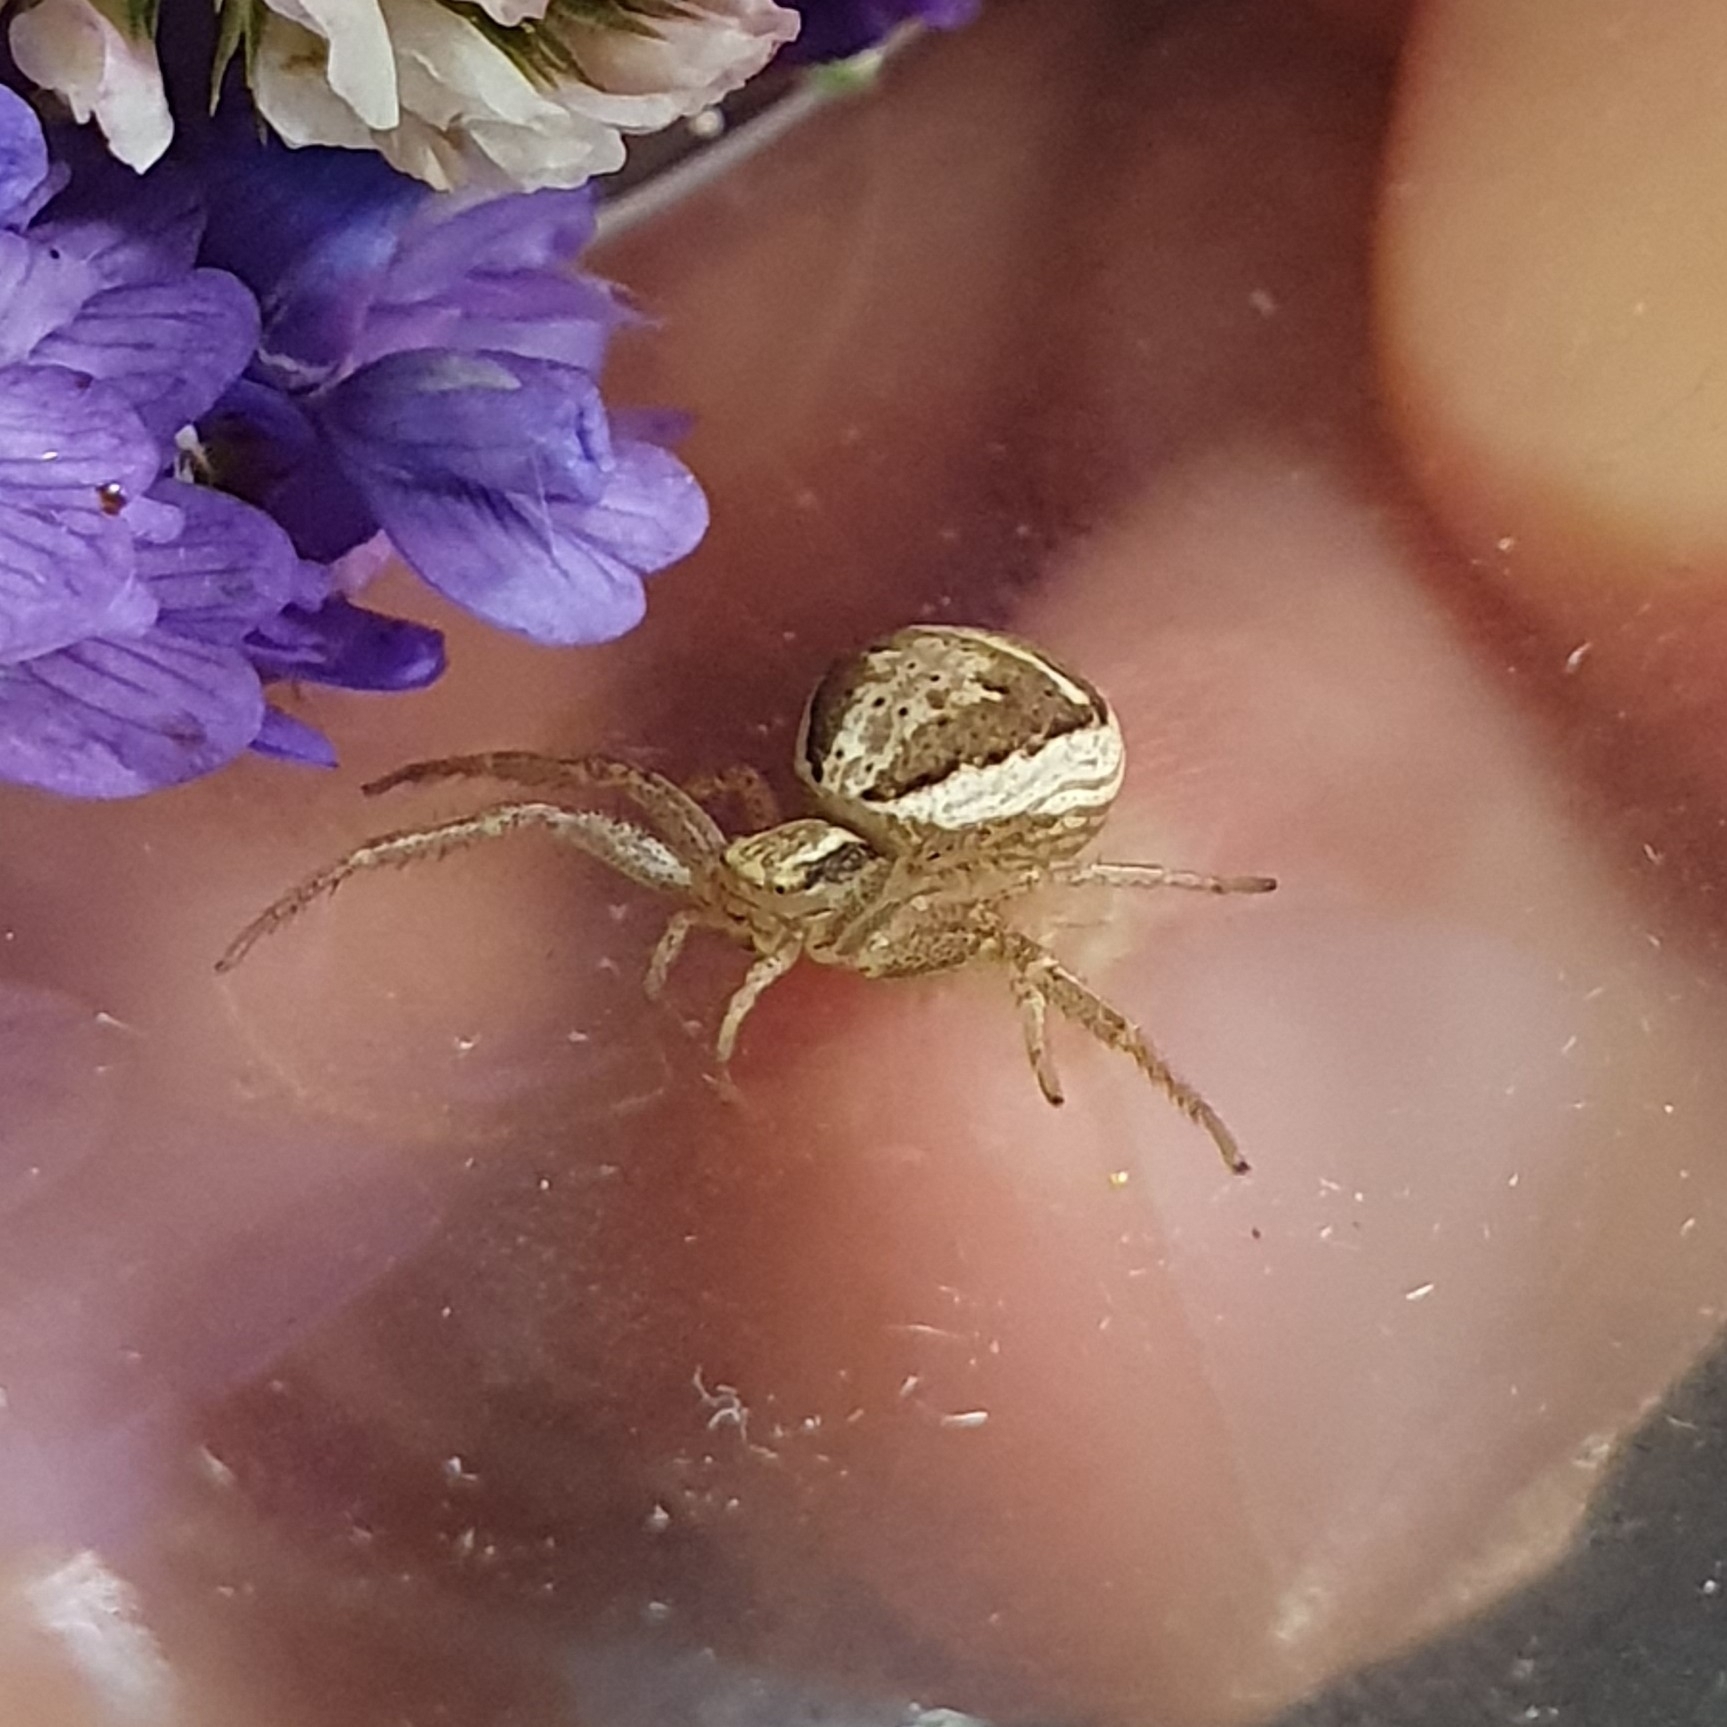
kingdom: Animalia
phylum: Arthropoda
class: Arachnida
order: Araneae
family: Thomisidae
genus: Xysticus
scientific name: Xysticus ulmi
